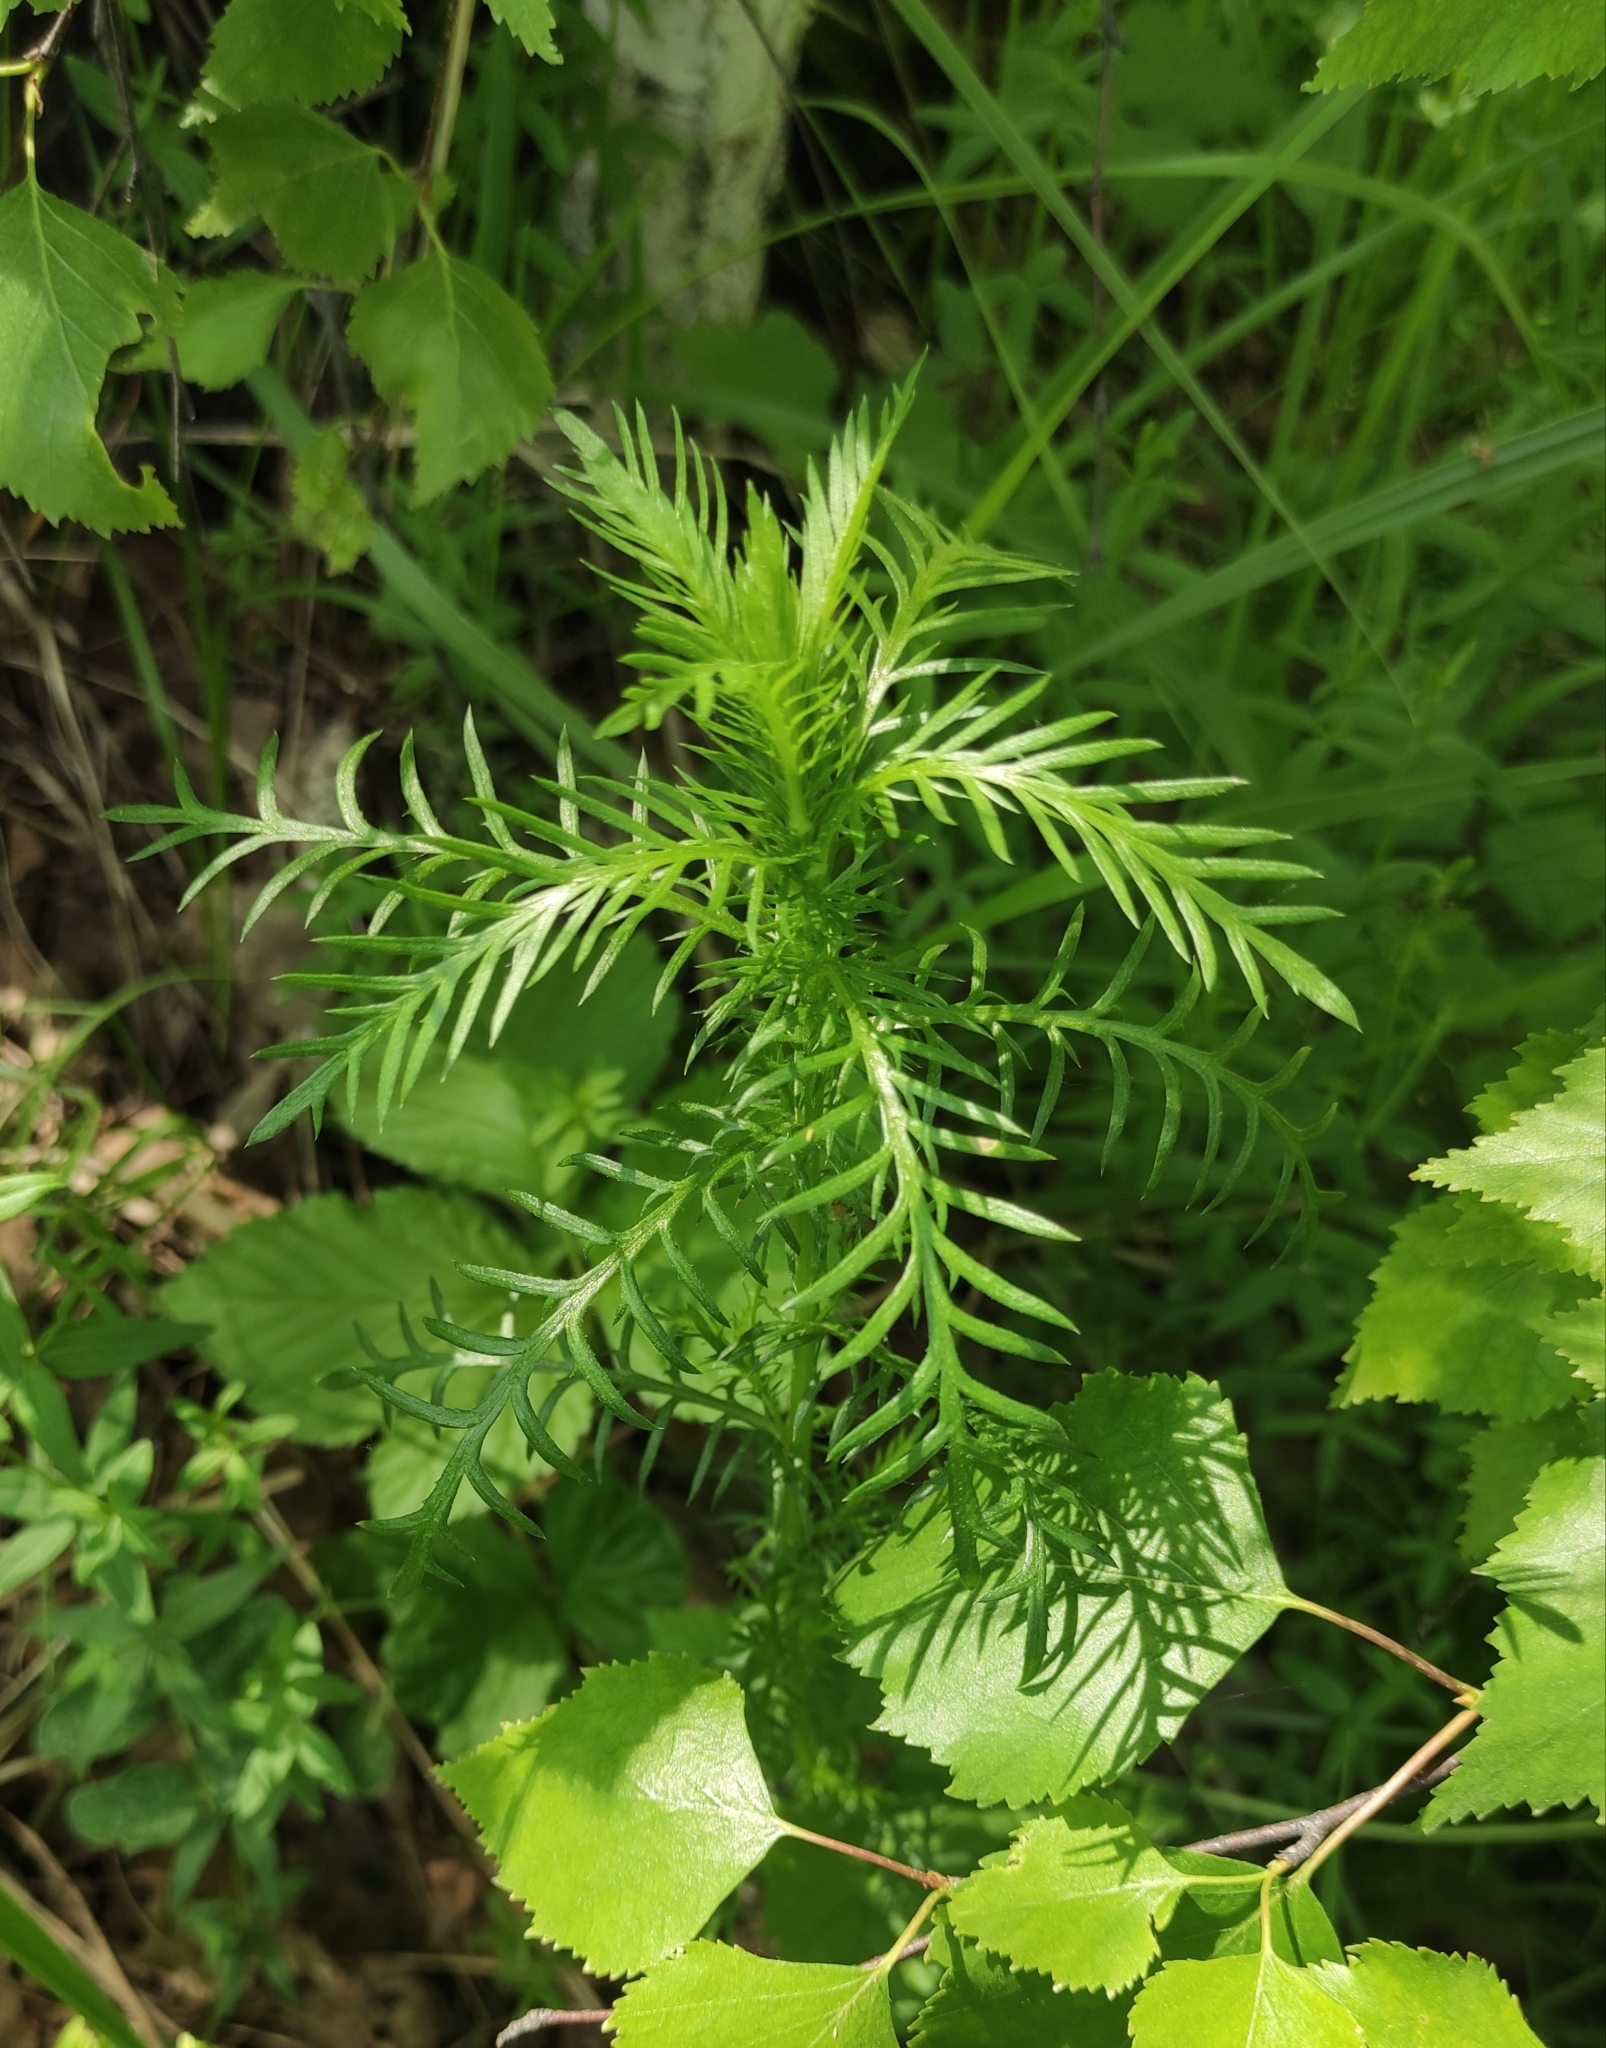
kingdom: Plantae
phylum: Tracheophyta
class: Magnoliopsida
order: Asterales
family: Asteraceae
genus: Achillea
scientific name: Achillea impatiens
